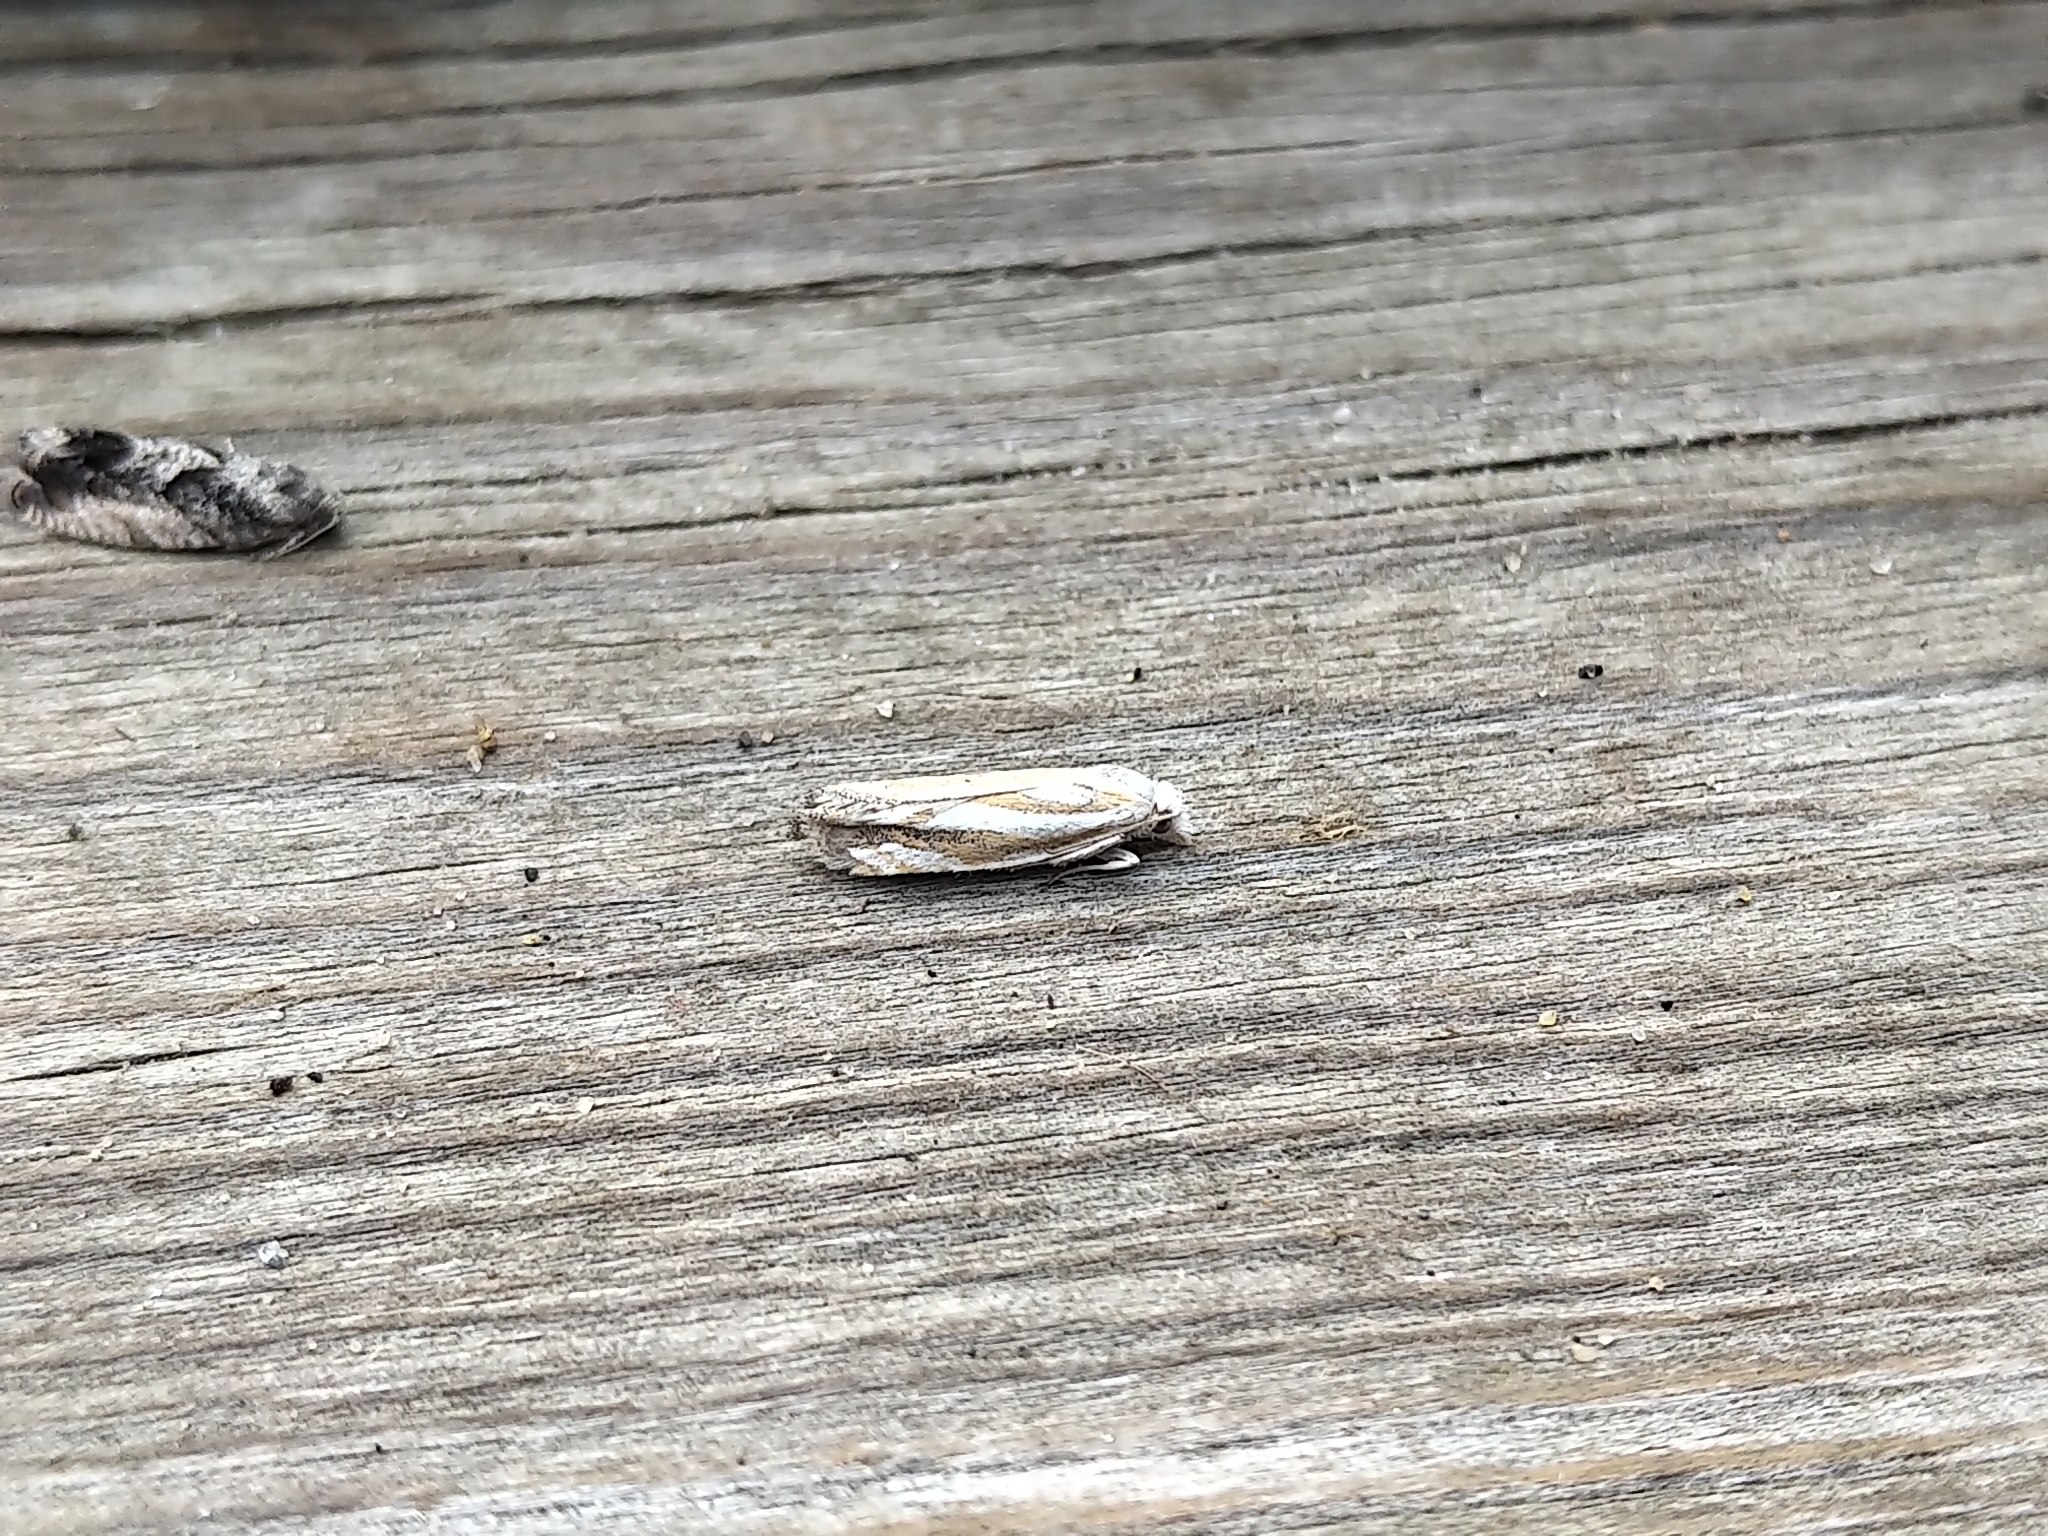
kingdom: Animalia
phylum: Arthropoda
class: Insecta
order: Lepidoptera
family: Tortricidae
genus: Pelochrista
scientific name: Pelochrista morrisoni
